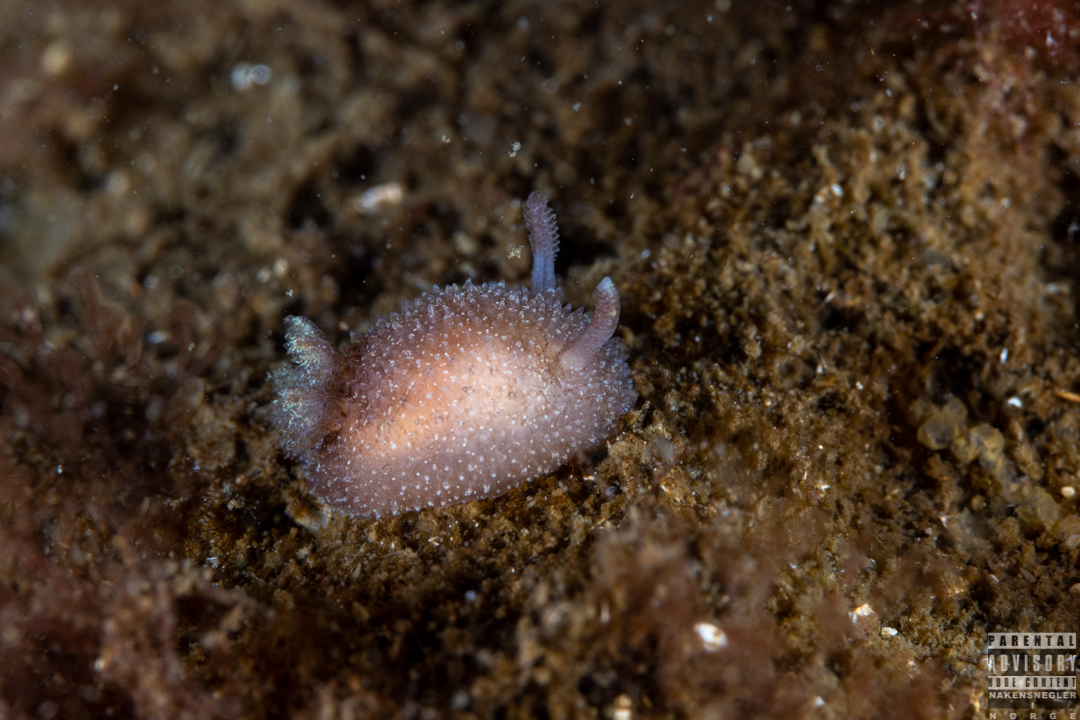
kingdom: Animalia
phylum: Mollusca
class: Gastropoda
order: Nudibranchia
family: Onchidorididae
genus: Acanthodoris
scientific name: Acanthodoris pilosa
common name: Hairy spiny doris
